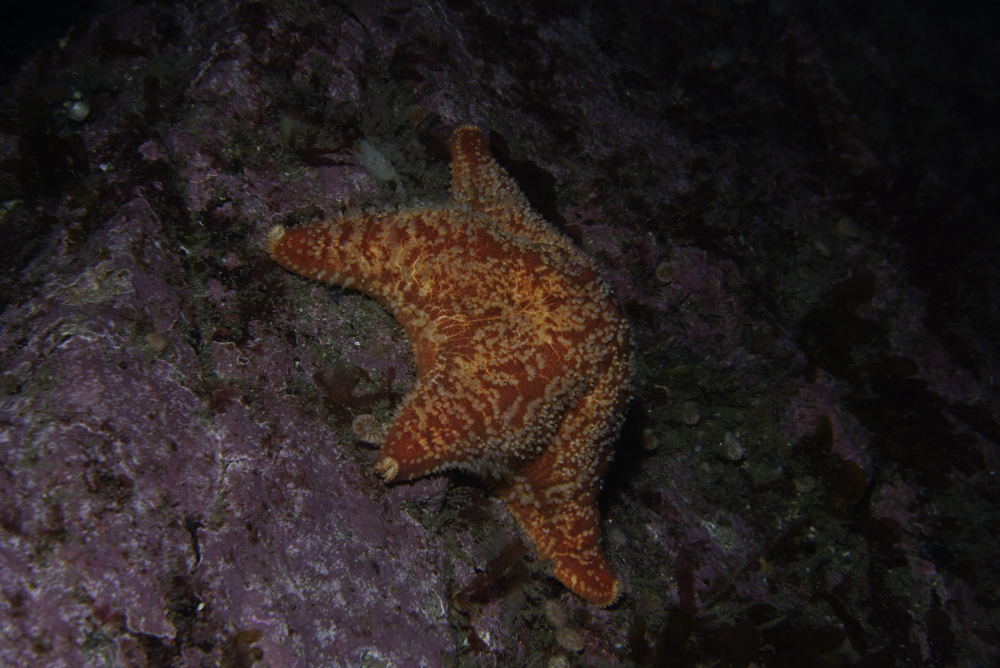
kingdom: Animalia
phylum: Echinodermata
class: Asteroidea
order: Valvatida
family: Poraniidae
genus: Porania
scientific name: Porania pulvillus
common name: Red cushion stat
